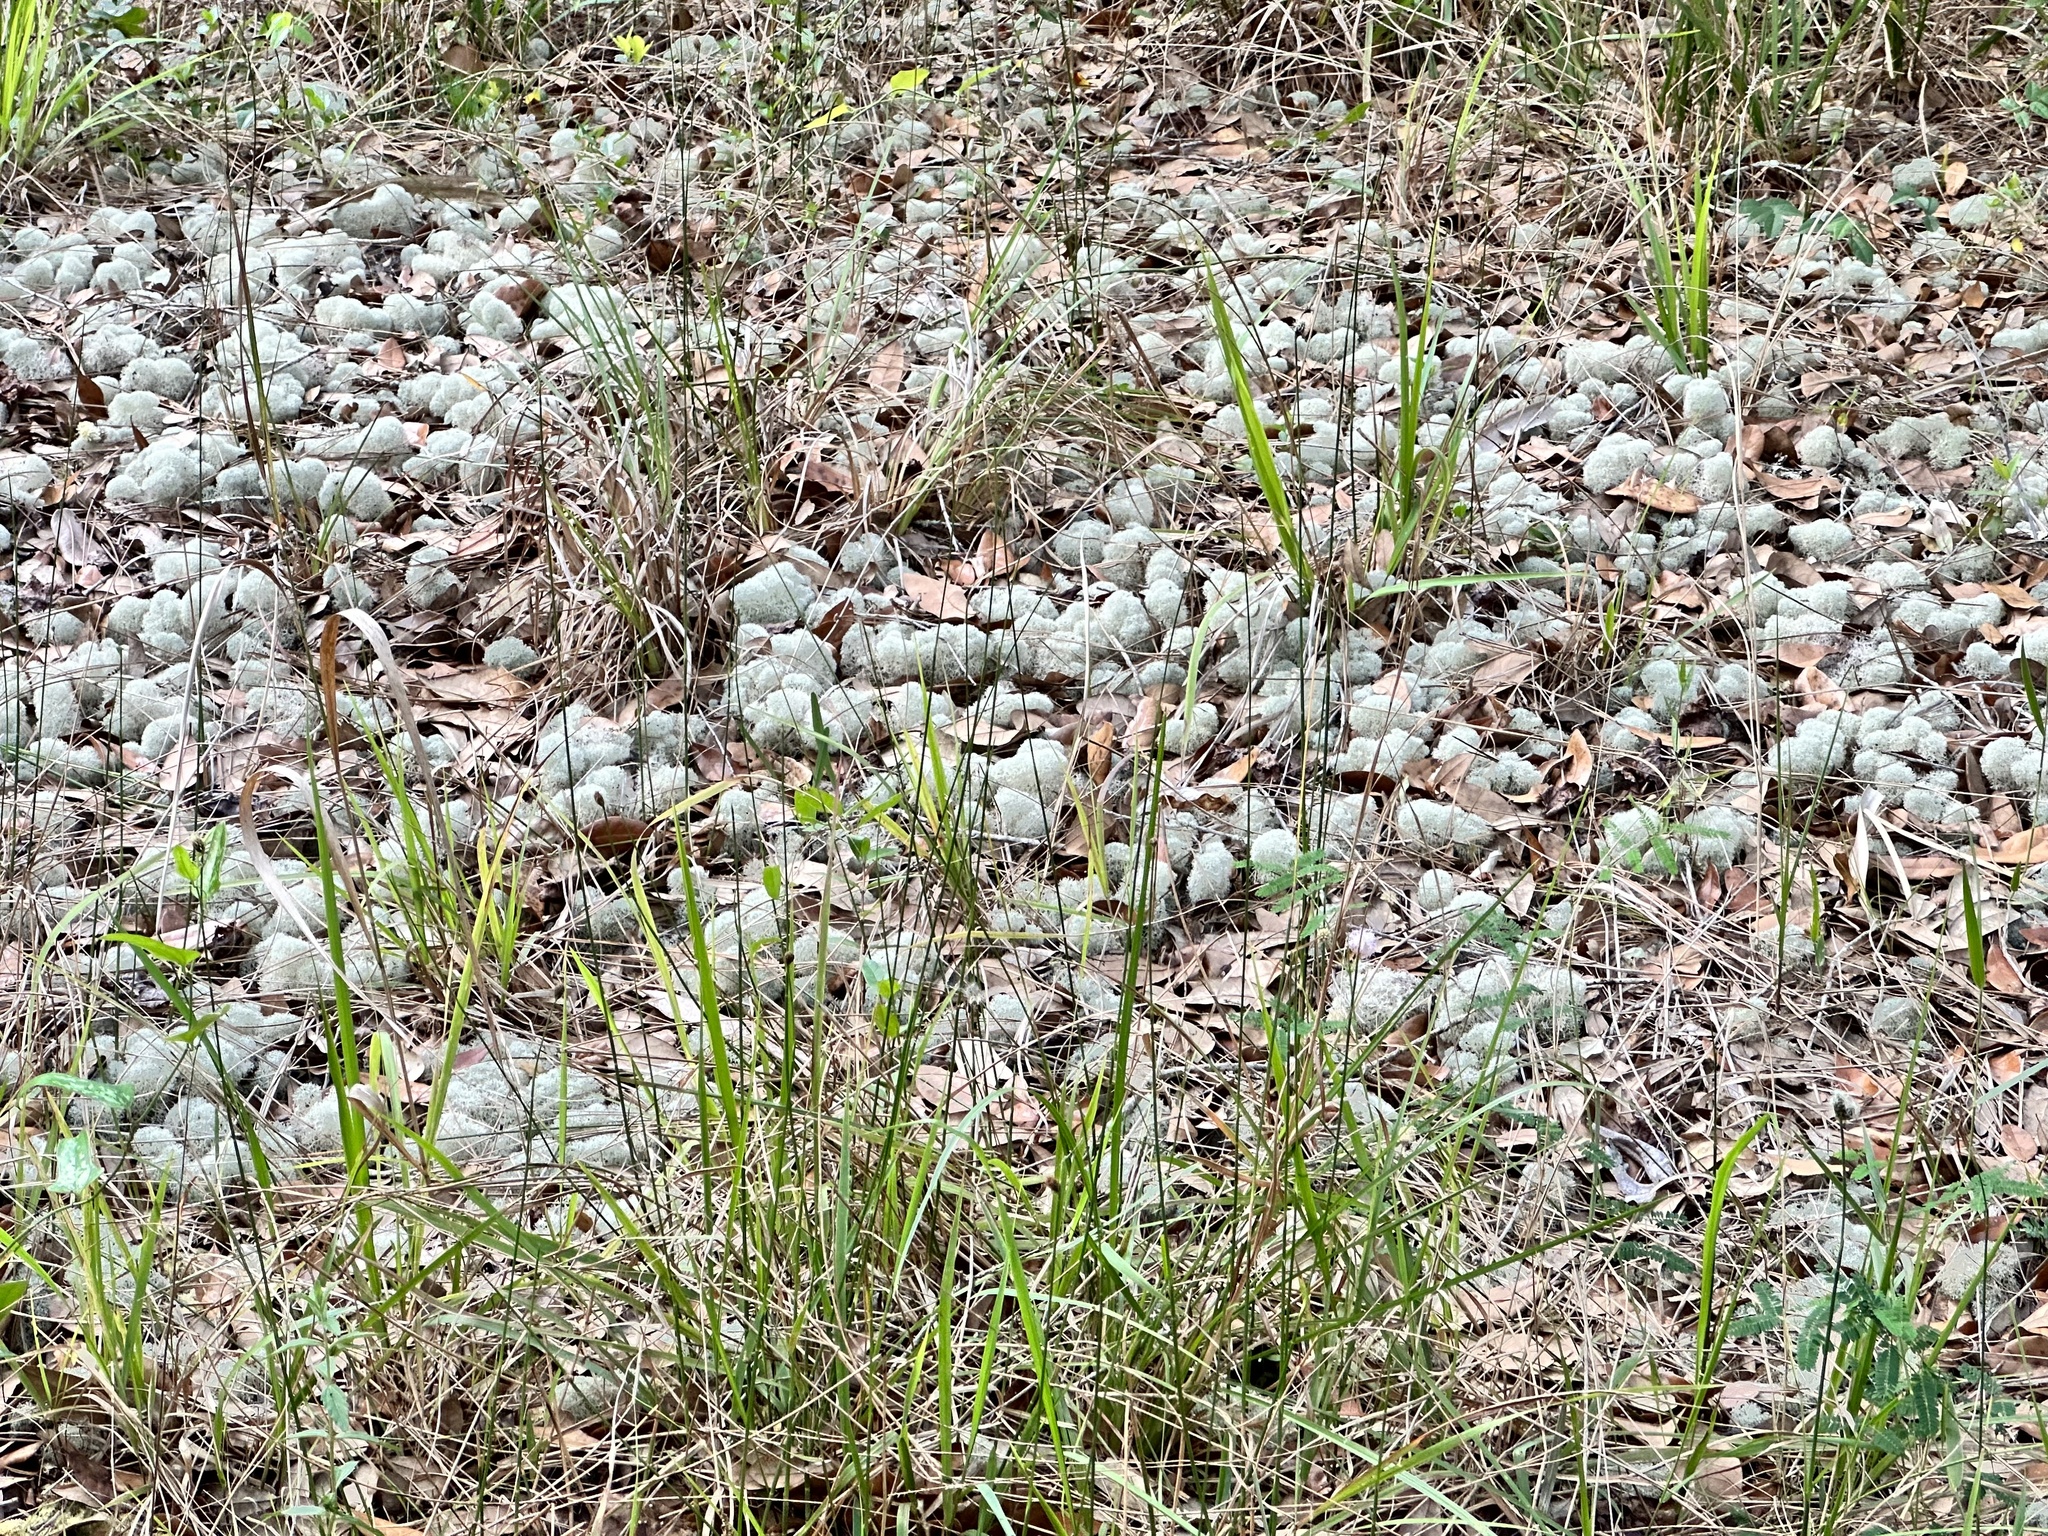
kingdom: Fungi
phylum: Ascomycota
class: Lecanoromycetes
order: Lecanorales
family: Cladoniaceae
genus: Cladonia
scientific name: Cladonia evansii
